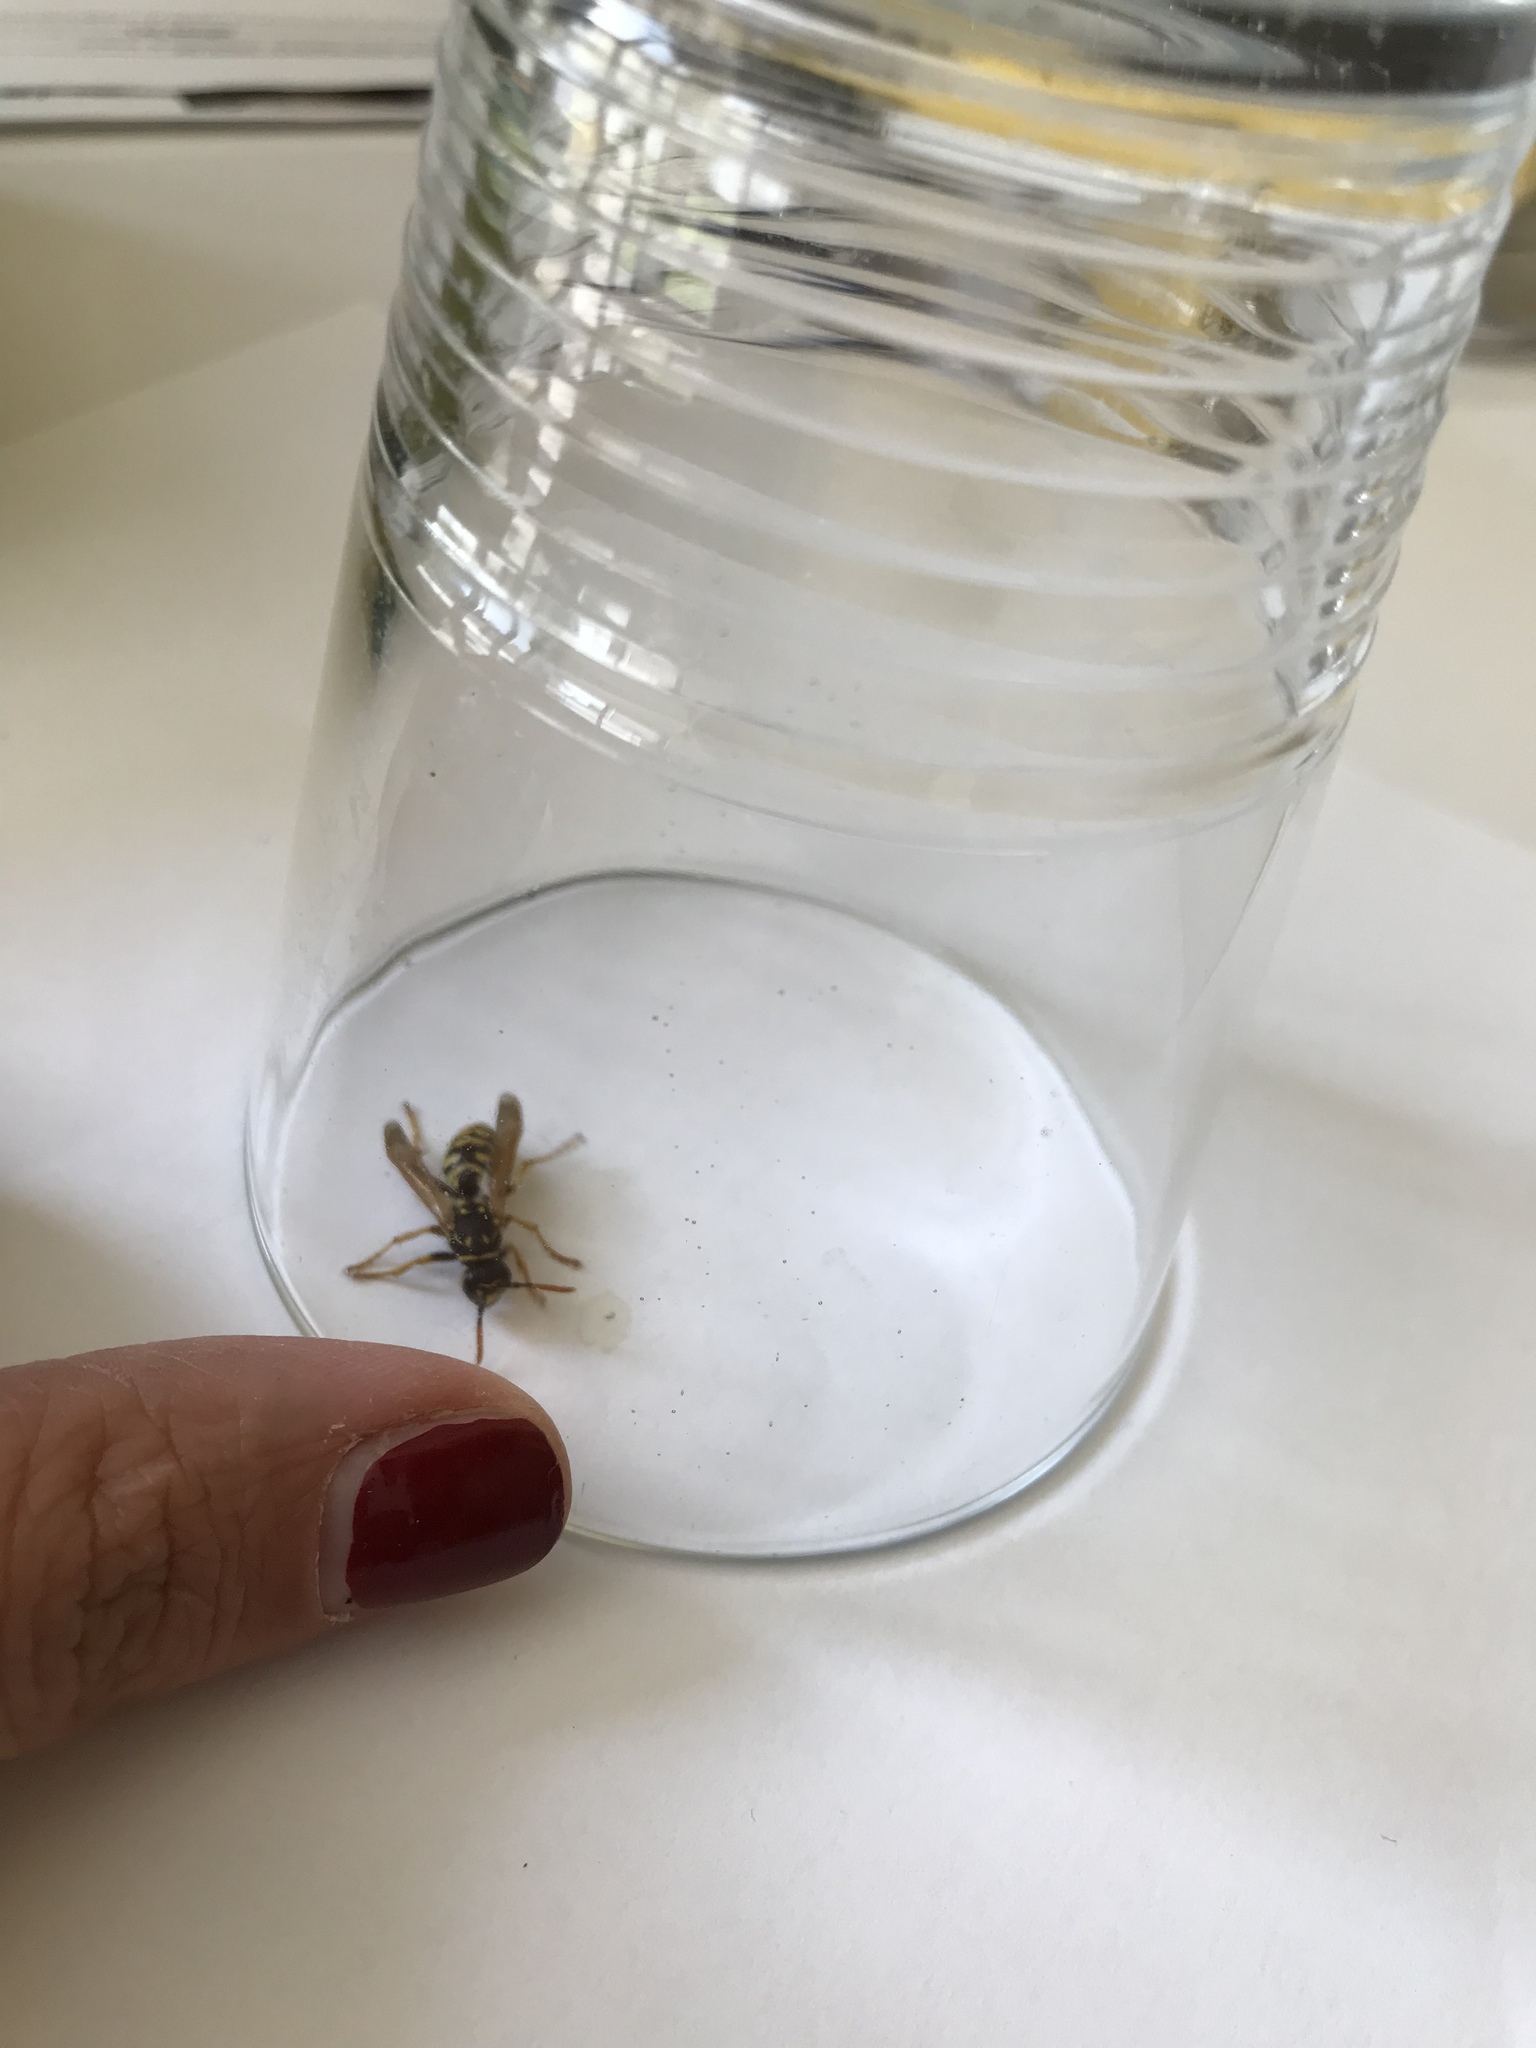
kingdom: Animalia
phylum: Arthropoda
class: Insecta
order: Hymenoptera
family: Eumenidae
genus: Polistes
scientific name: Polistes dominula
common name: Paper wasp
